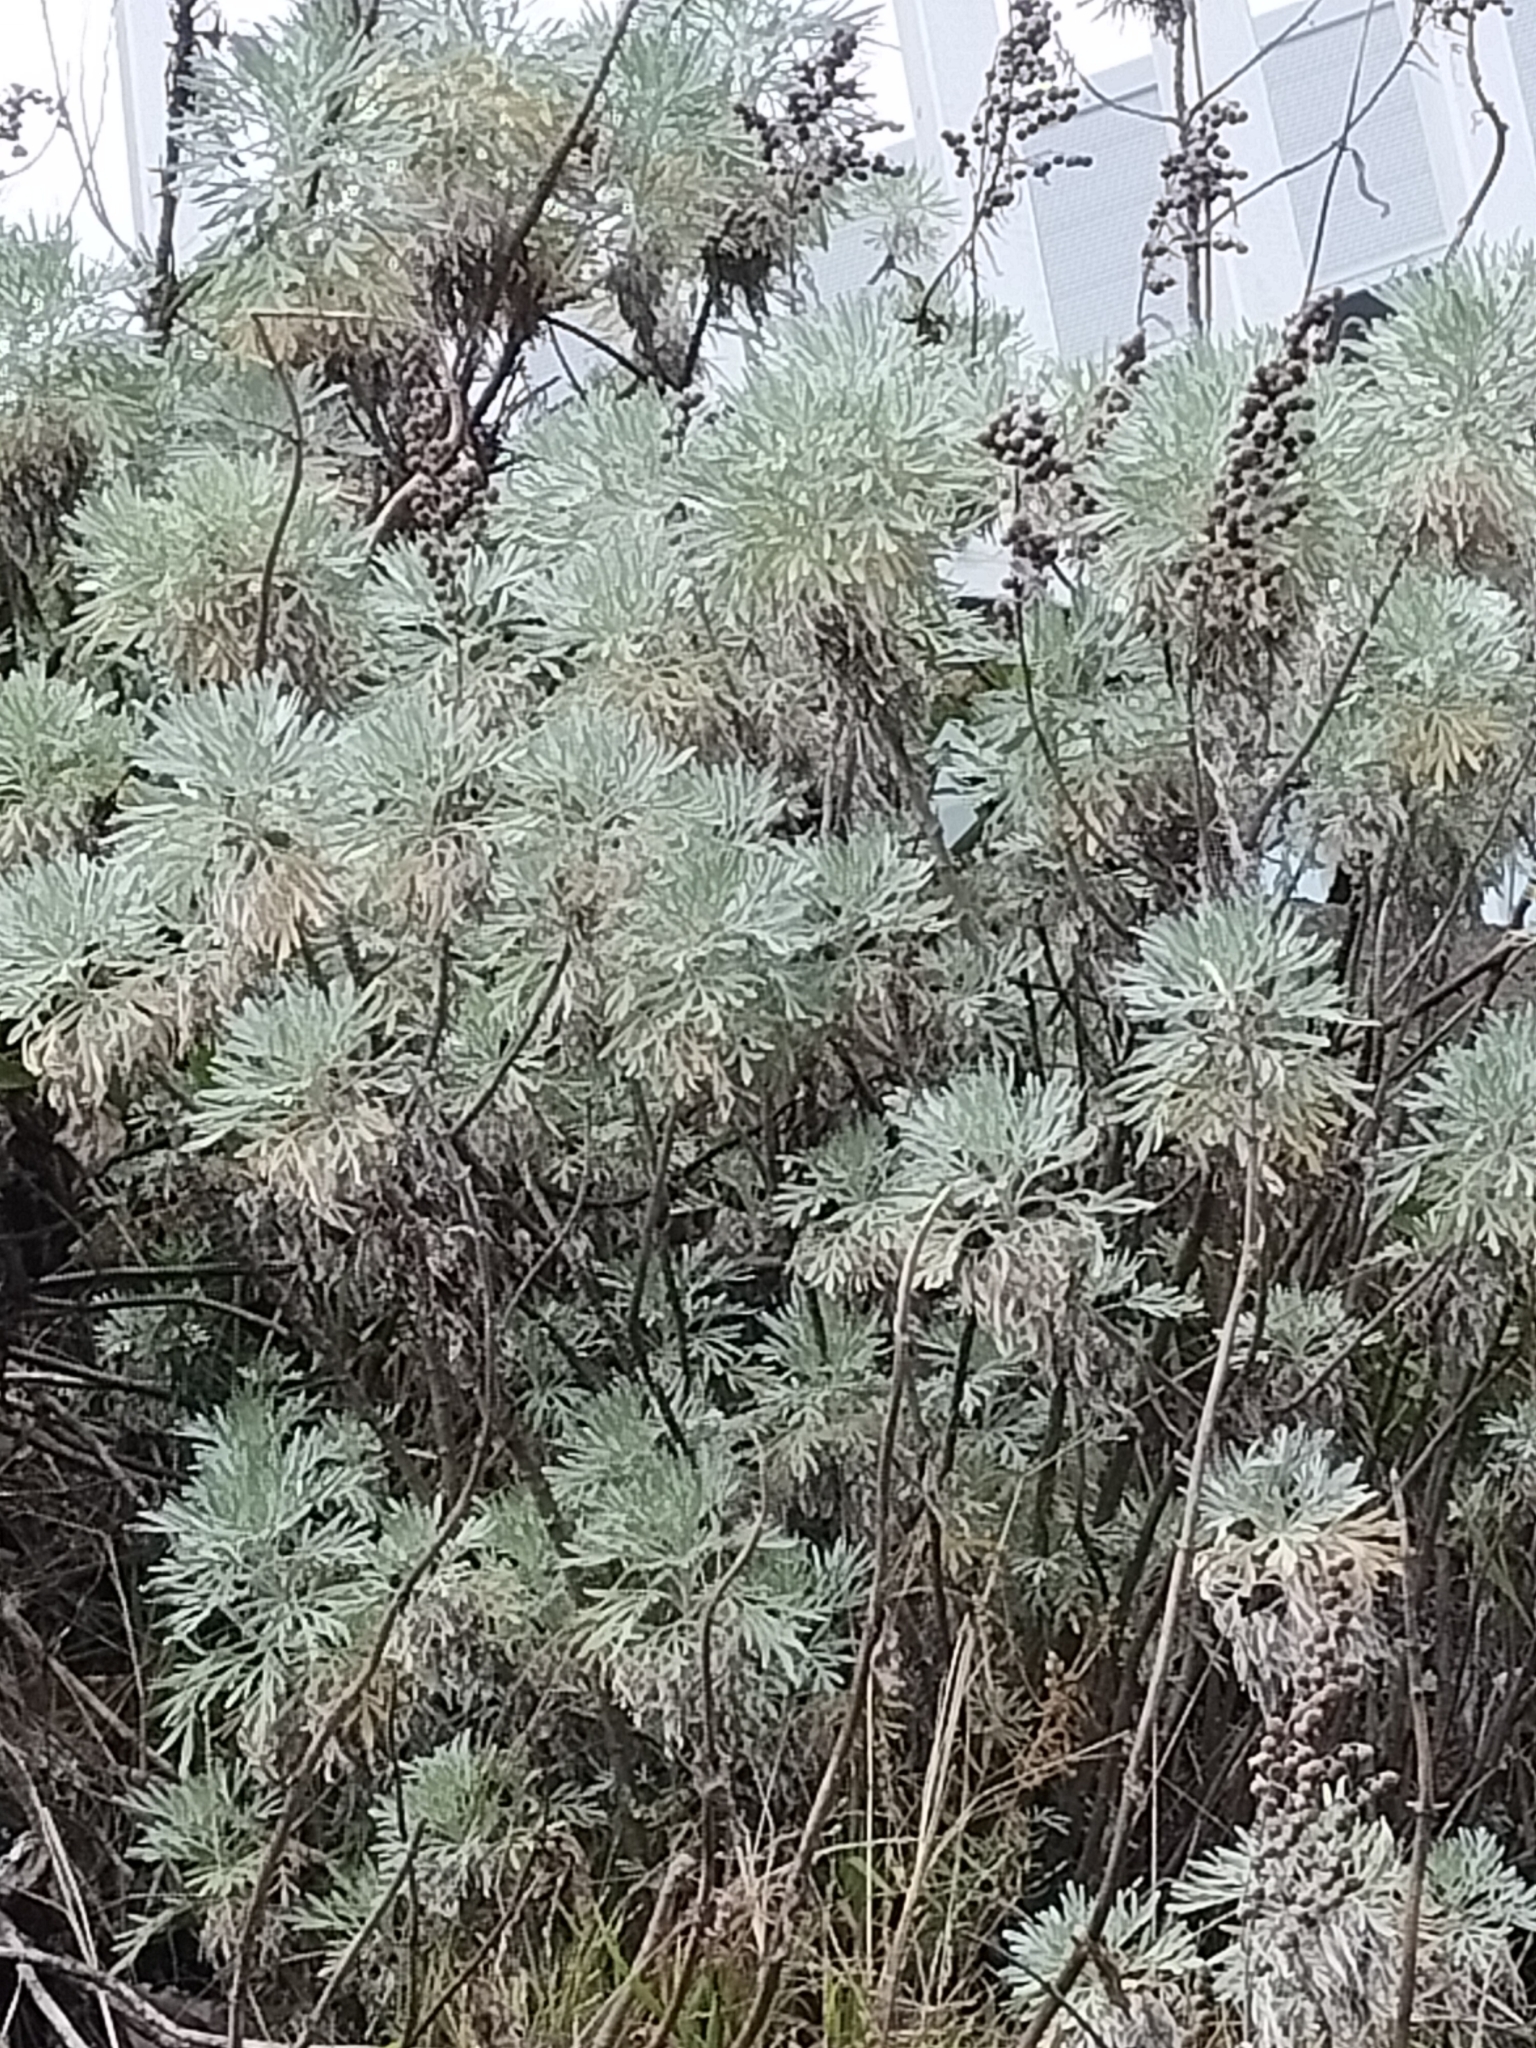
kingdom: Plantae
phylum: Tracheophyta
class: Magnoliopsida
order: Asterales
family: Asteraceae
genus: Artemisia
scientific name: Artemisia arborescens
